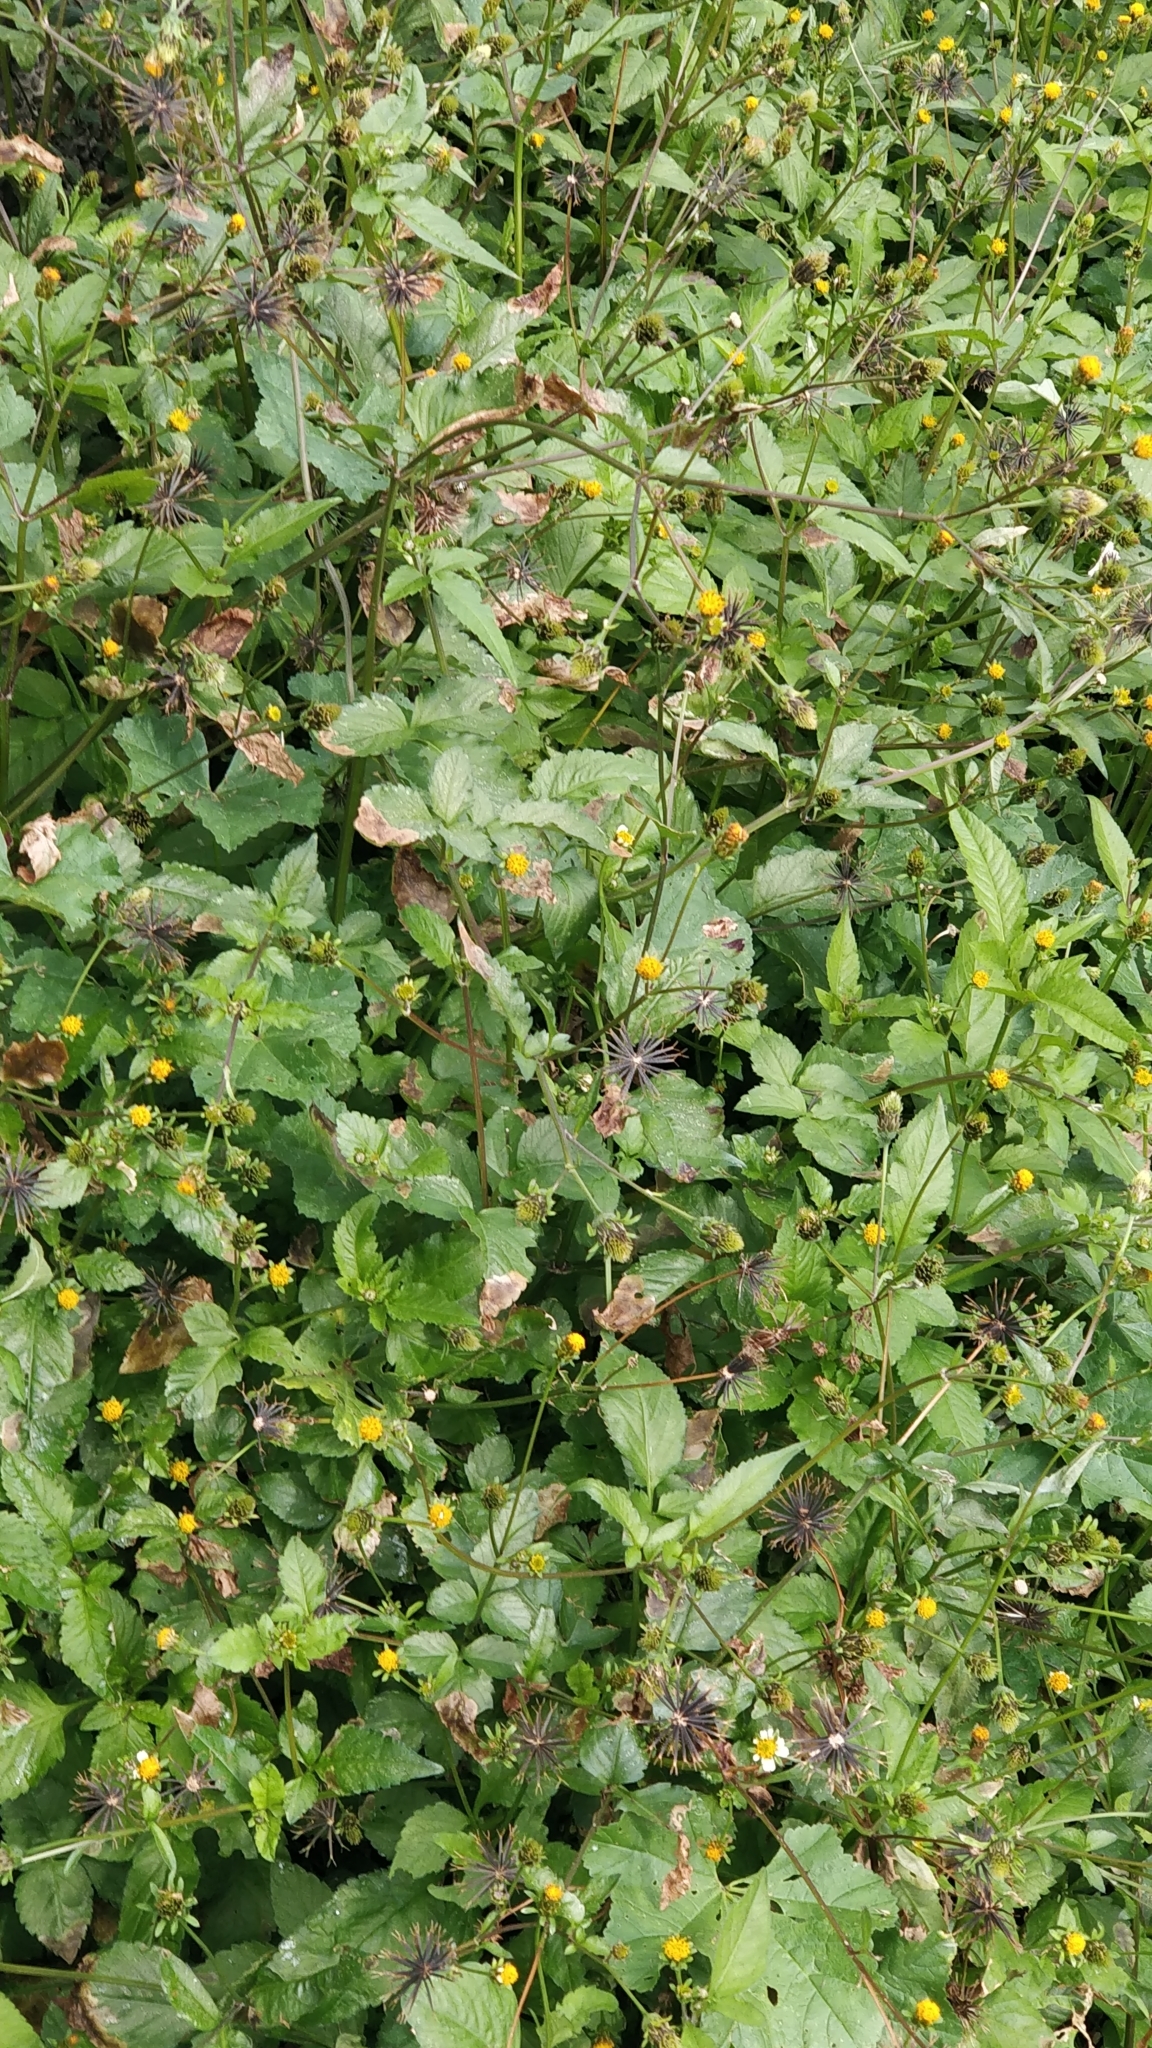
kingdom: Plantae
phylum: Tracheophyta
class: Magnoliopsida
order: Asterales
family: Asteraceae
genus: Bidens
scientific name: Bidens pilosa
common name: Black-jack
